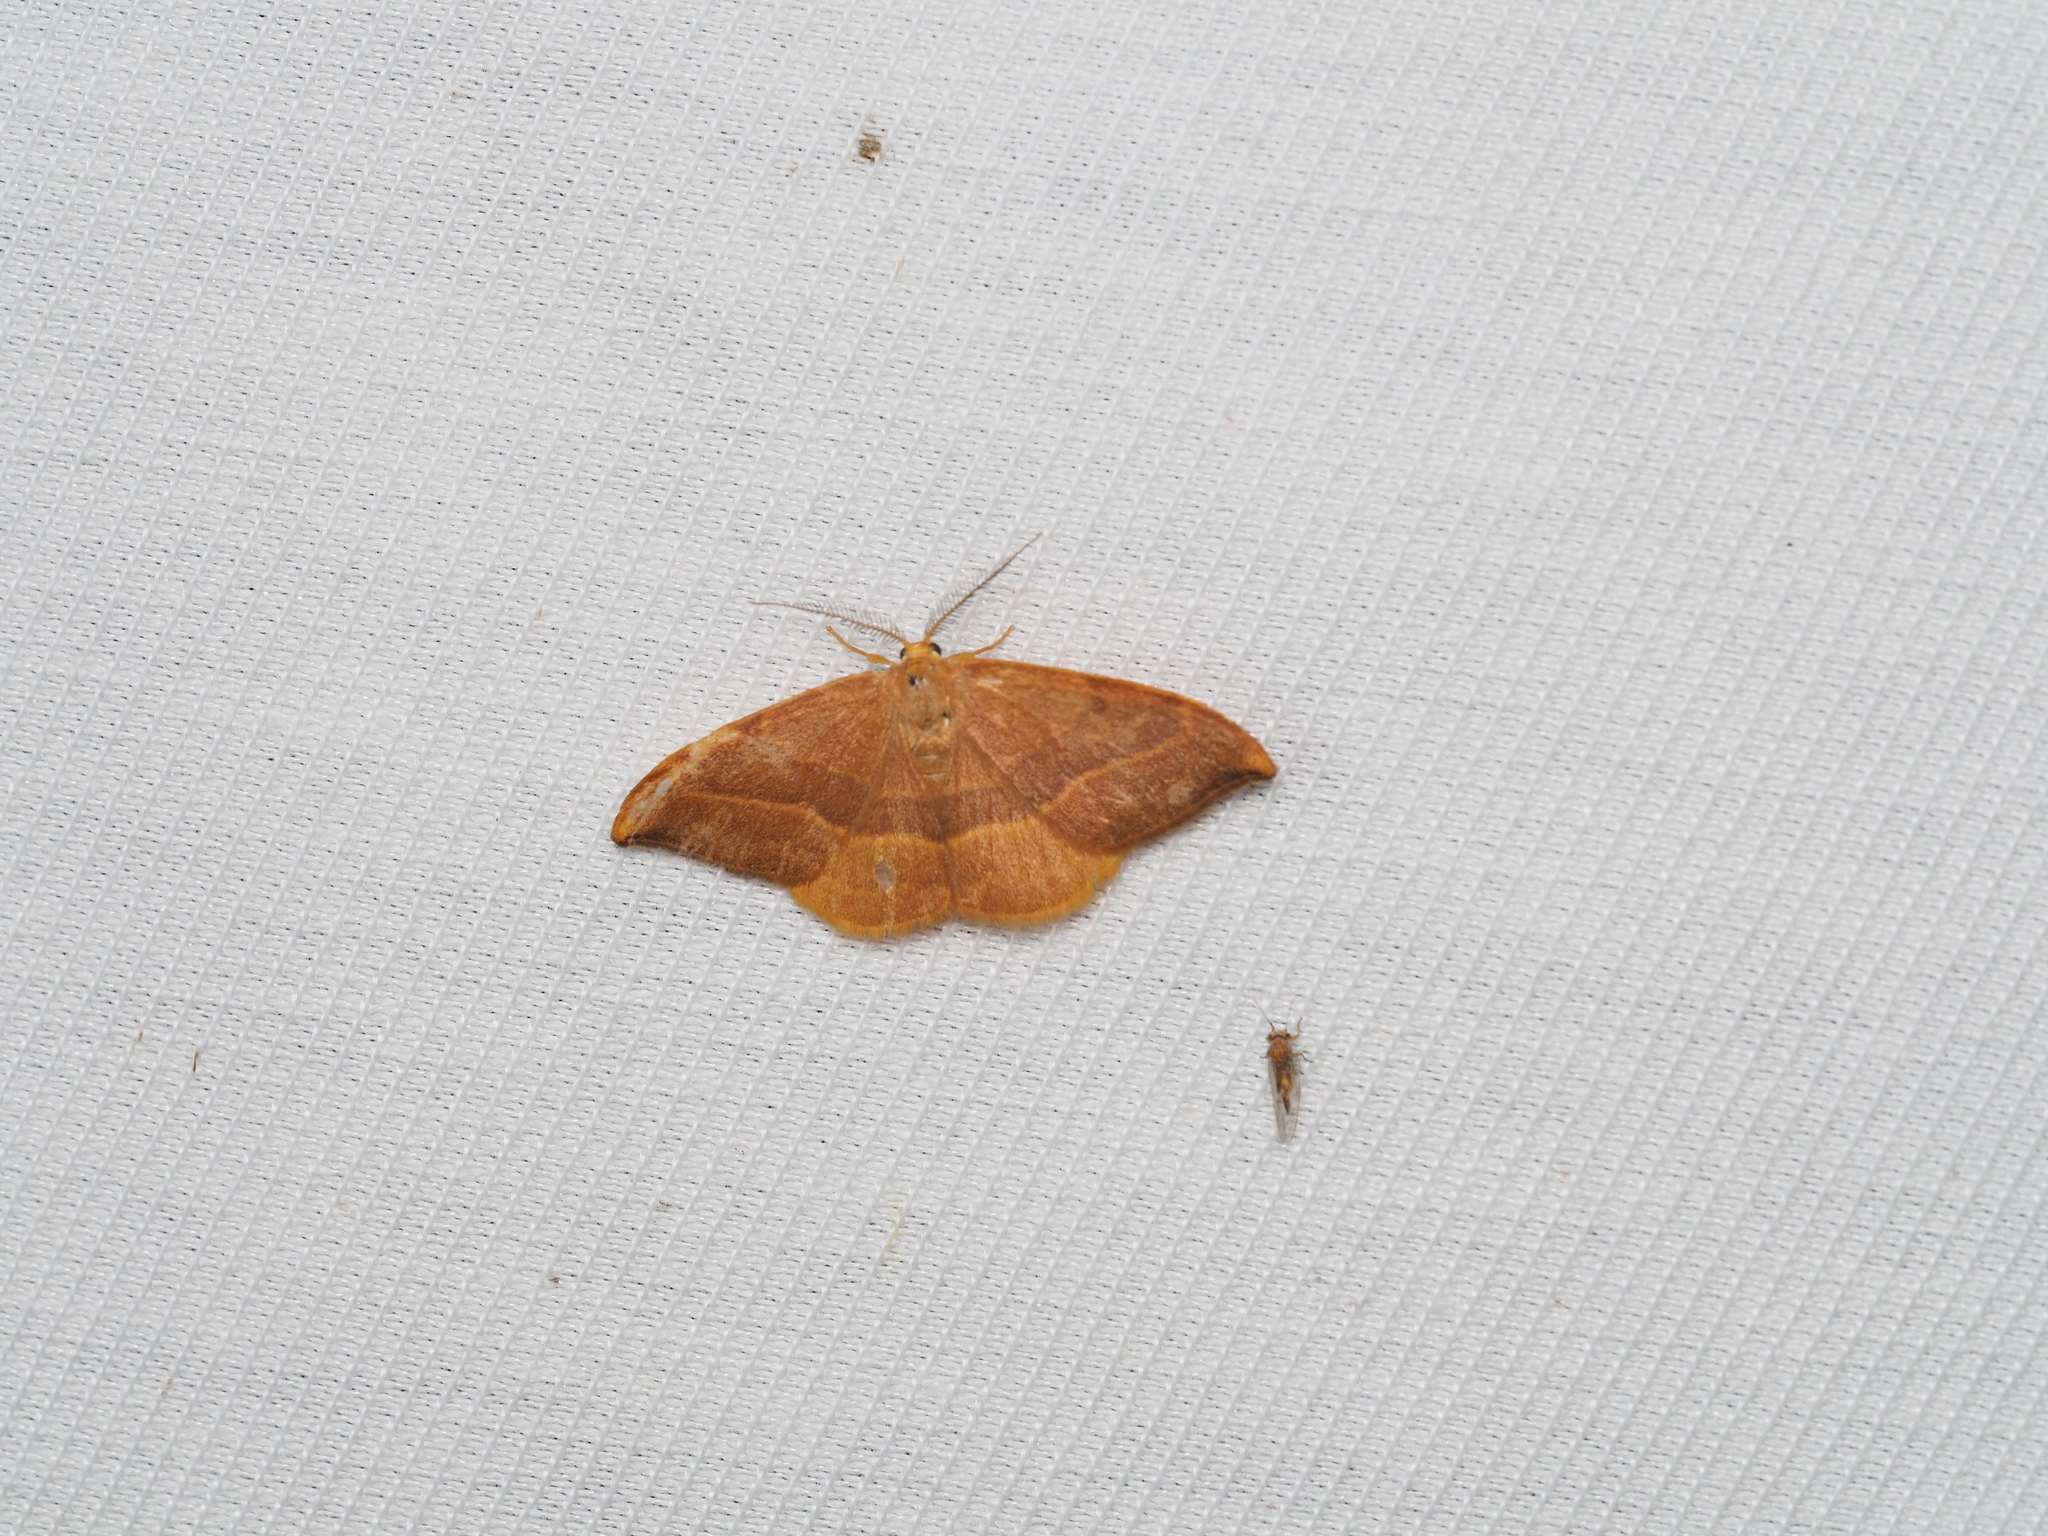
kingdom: Animalia
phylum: Arthropoda
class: Insecta
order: Lepidoptera
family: Drepanidae
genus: Watsonalla
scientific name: Watsonalla cultraria
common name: Barred hook-tip
